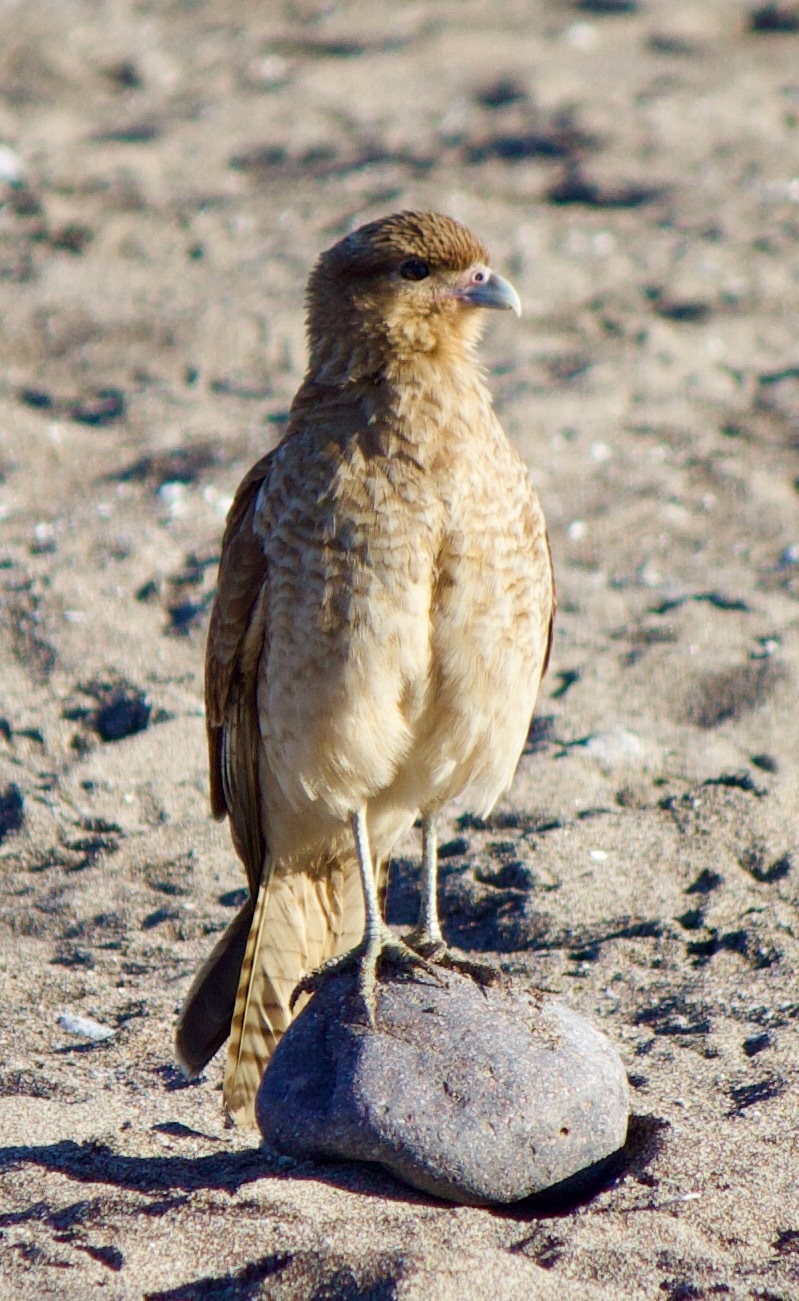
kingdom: Animalia
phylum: Chordata
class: Aves
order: Falconiformes
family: Falconidae
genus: Daptrius
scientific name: Daptrius
